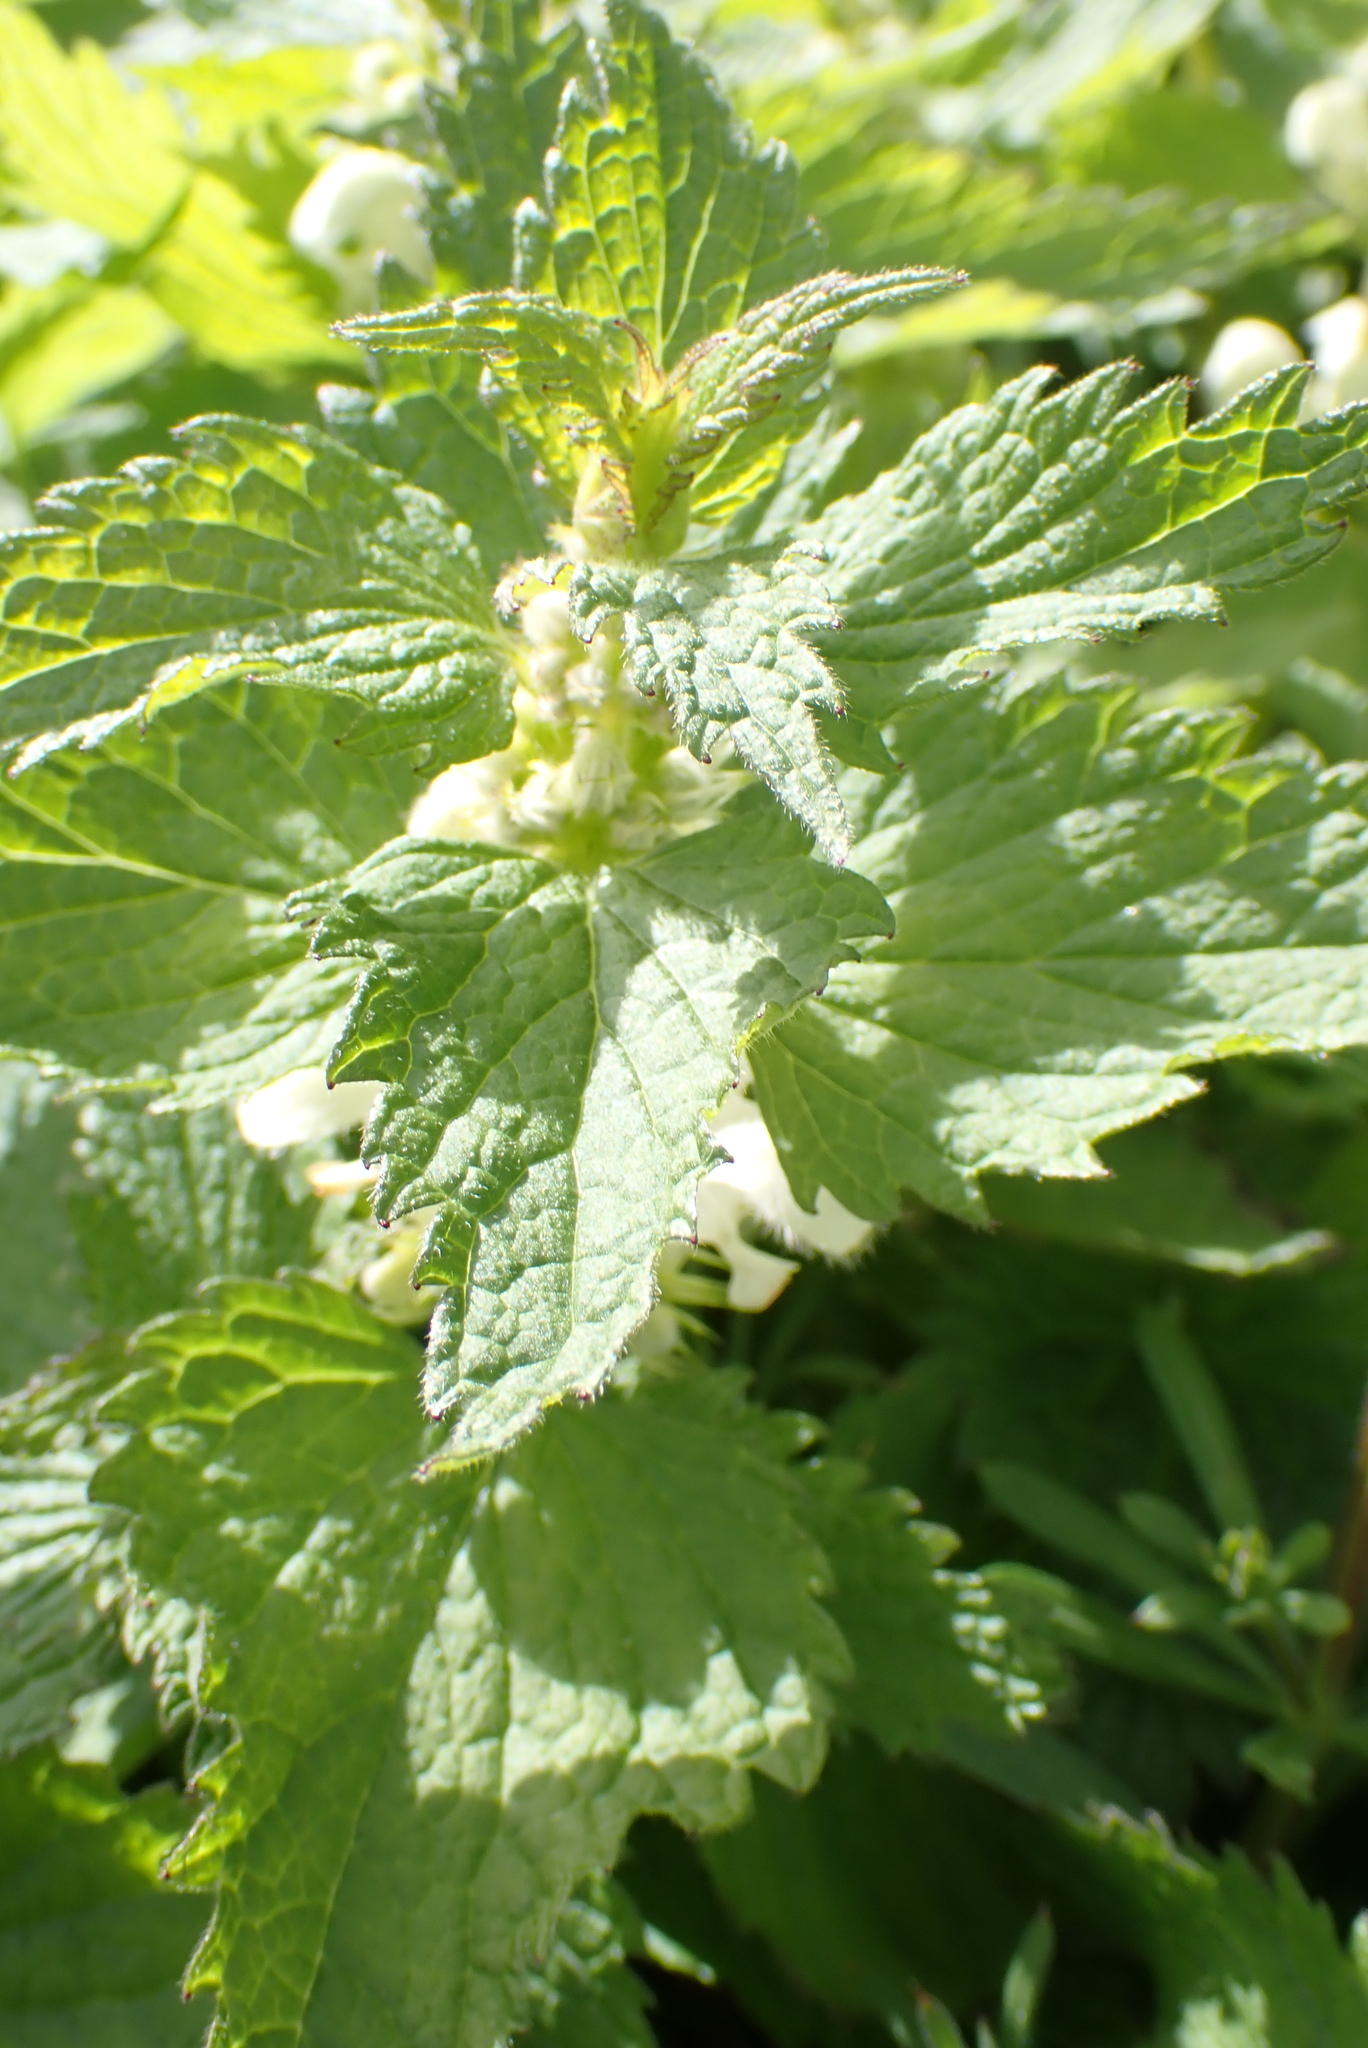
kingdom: Plantae
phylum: Tracheophyta
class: Magnoliopsida
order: Lamiales
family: Lamiaceae
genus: Lamium
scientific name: Lamium album
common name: White dead-nettle
